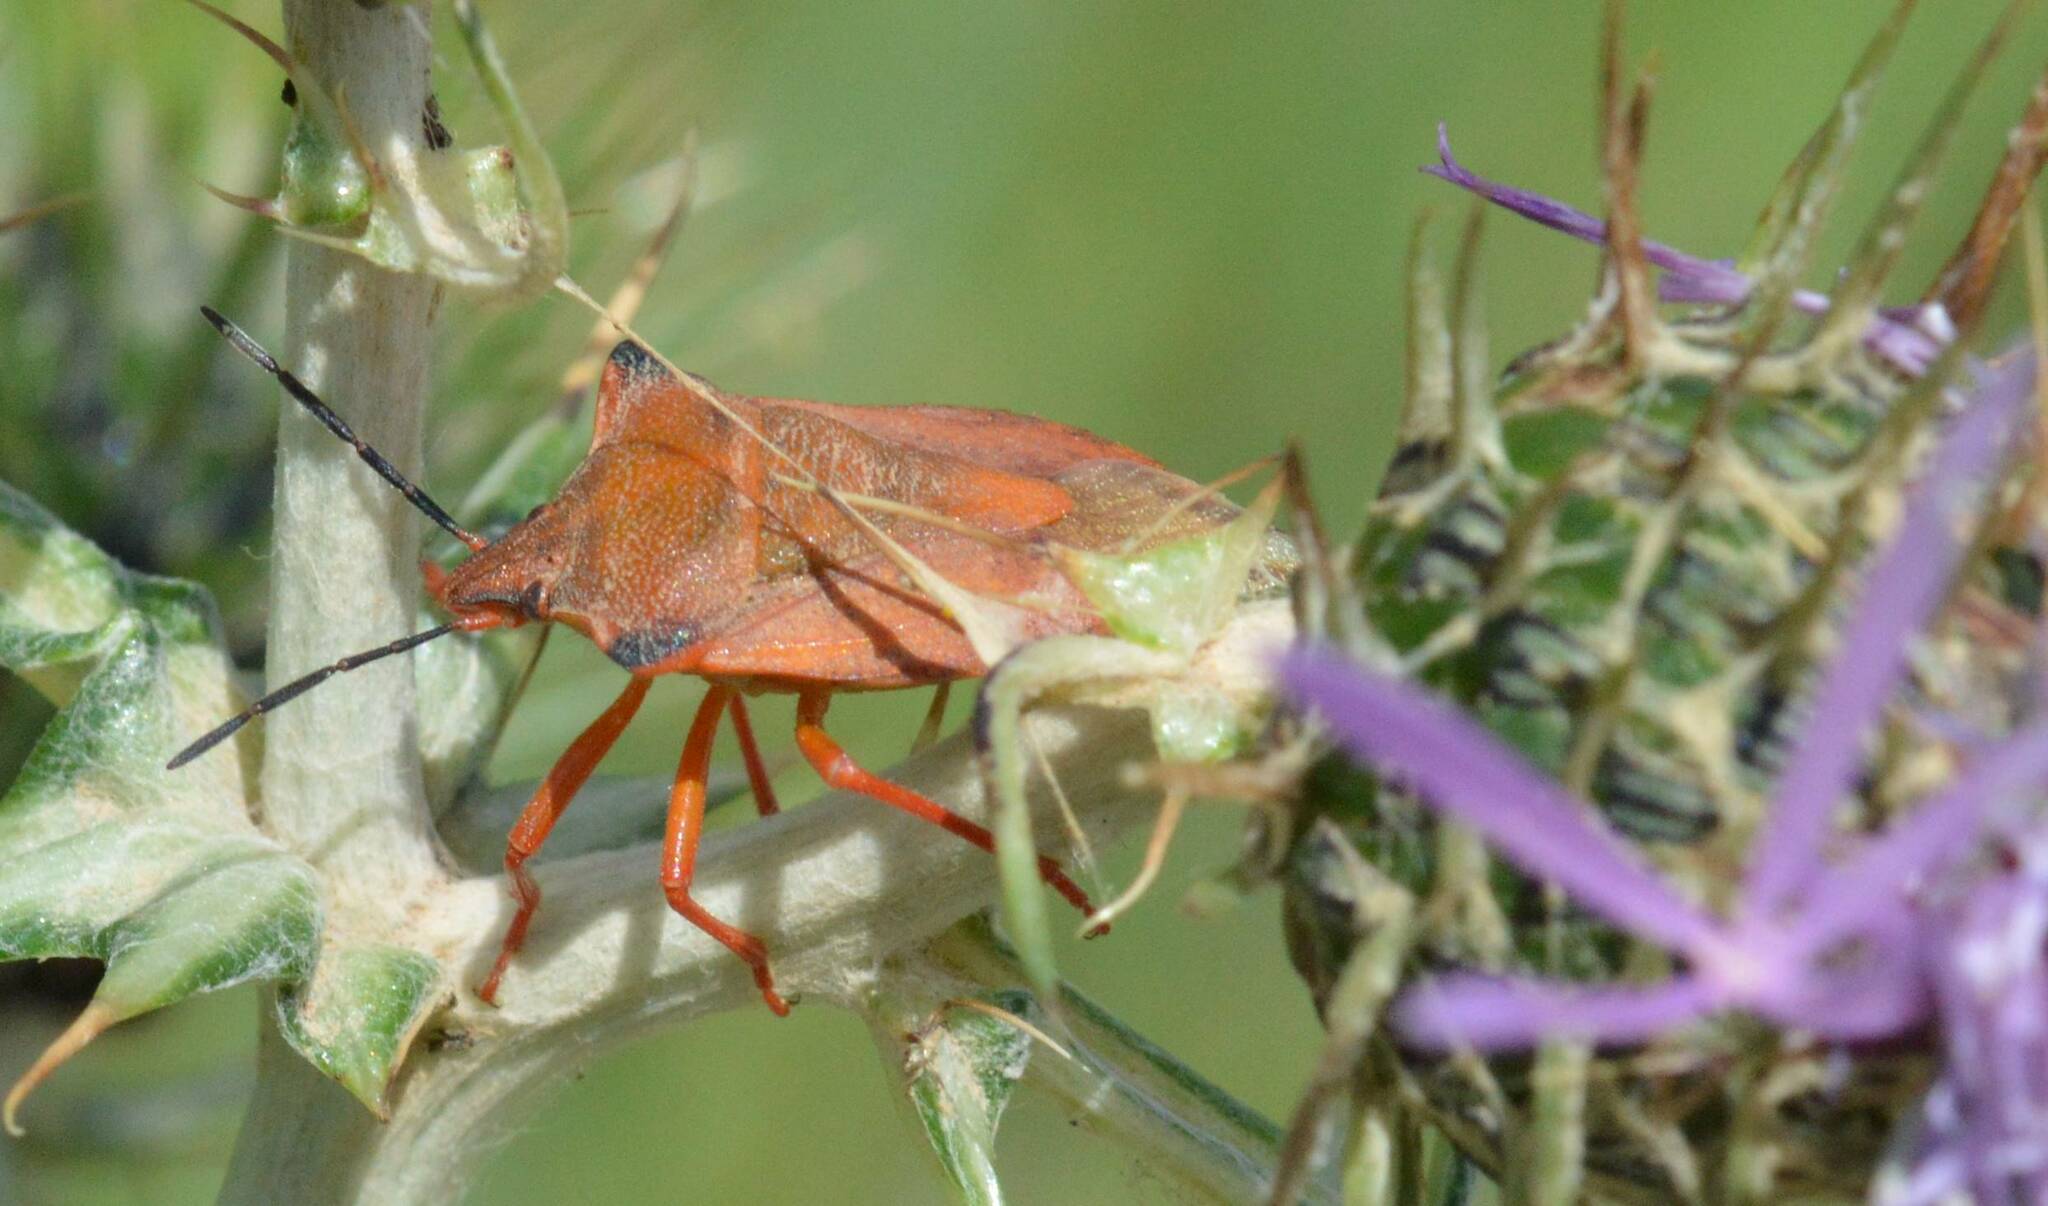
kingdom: Animalia
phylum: Arthropoda
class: Insecta
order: Hemiptera
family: Pentatomidae
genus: Carpocoris
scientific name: Carpocoris mediterraneus
